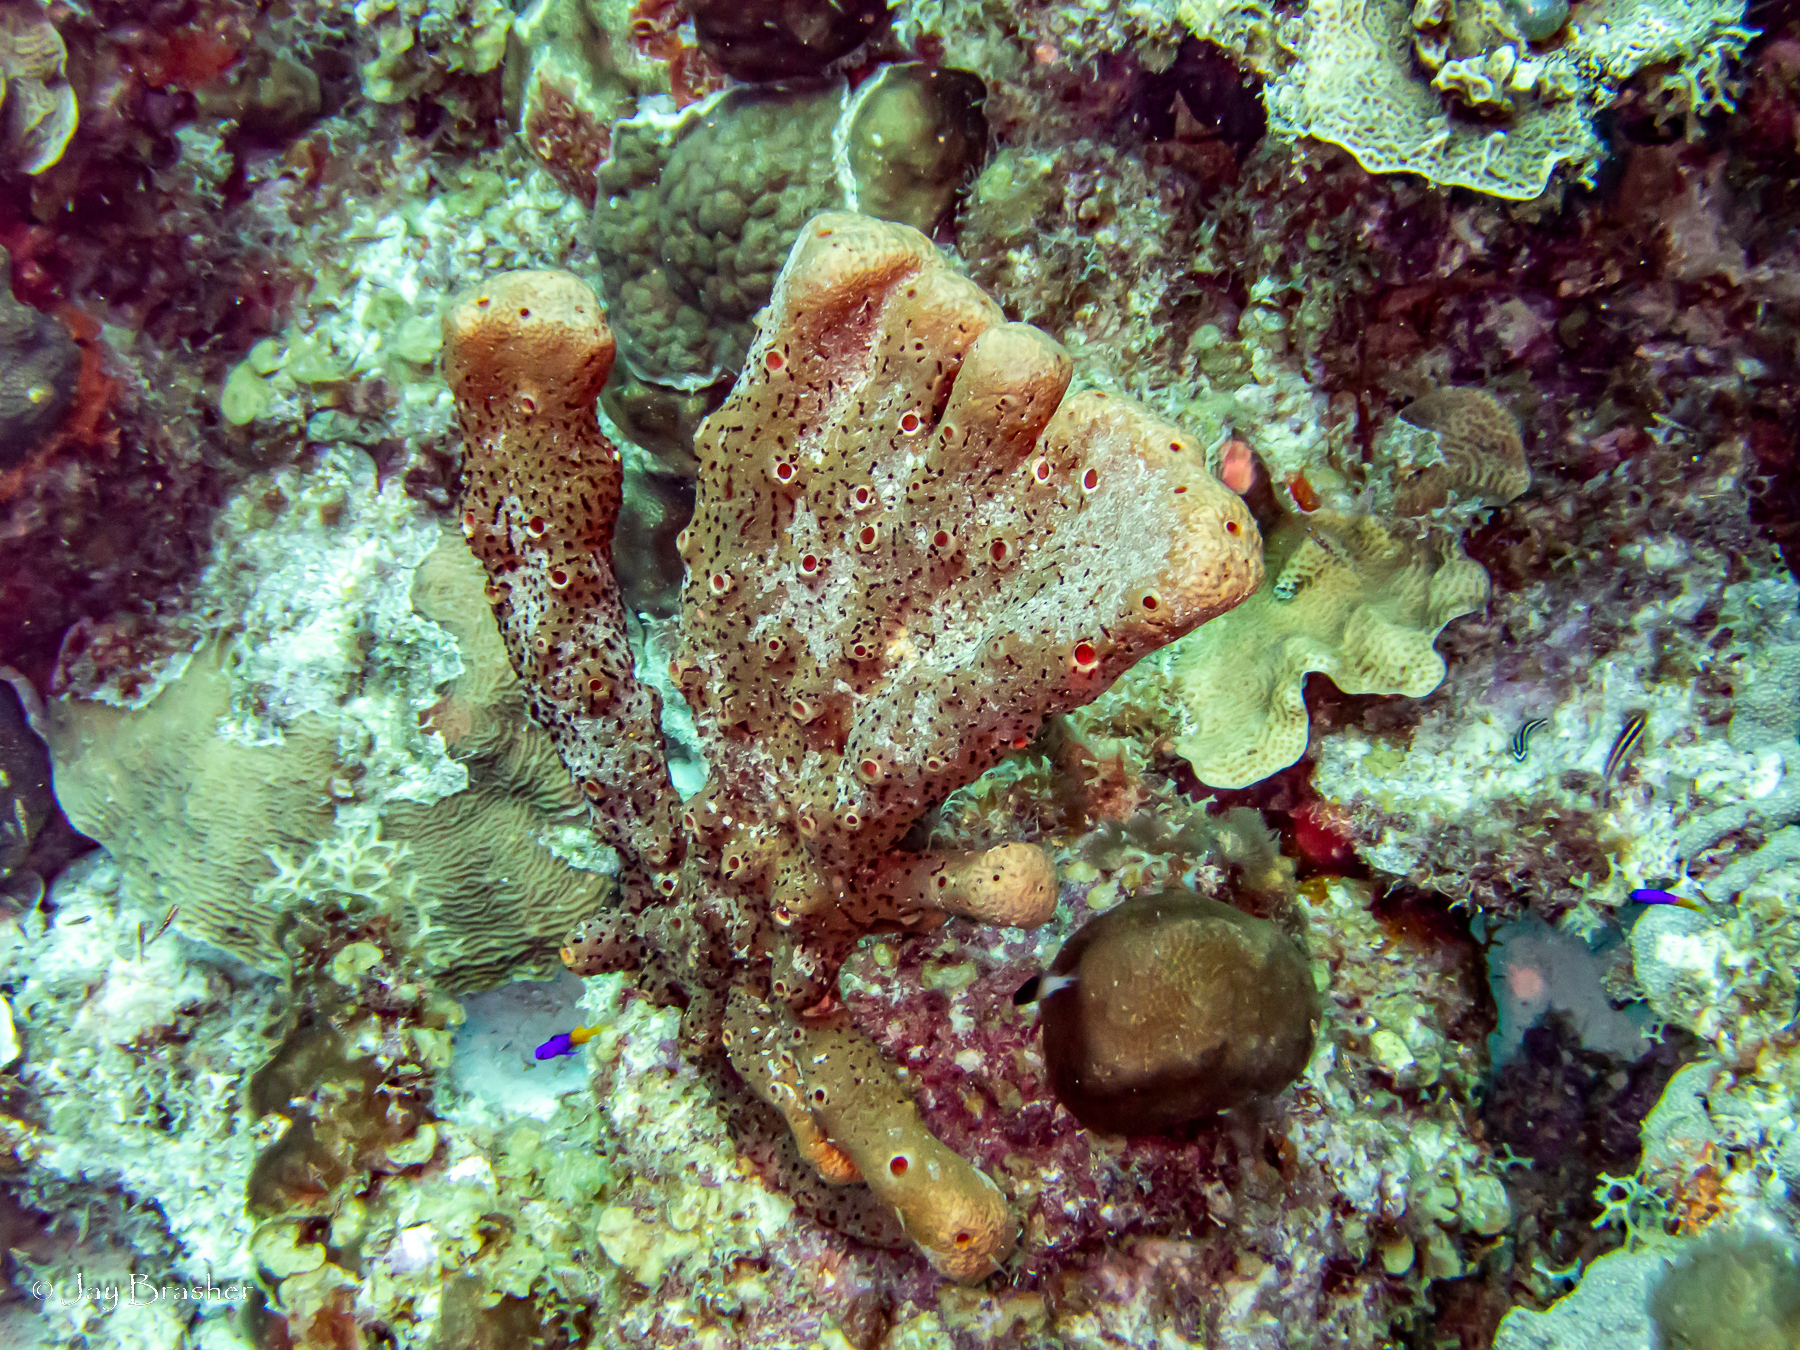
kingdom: Animalia
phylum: Porifera
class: Demospongiae
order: Agelasida
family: Agelasidae
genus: Agelas
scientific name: Agelas conifera
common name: Brown tube sponge
